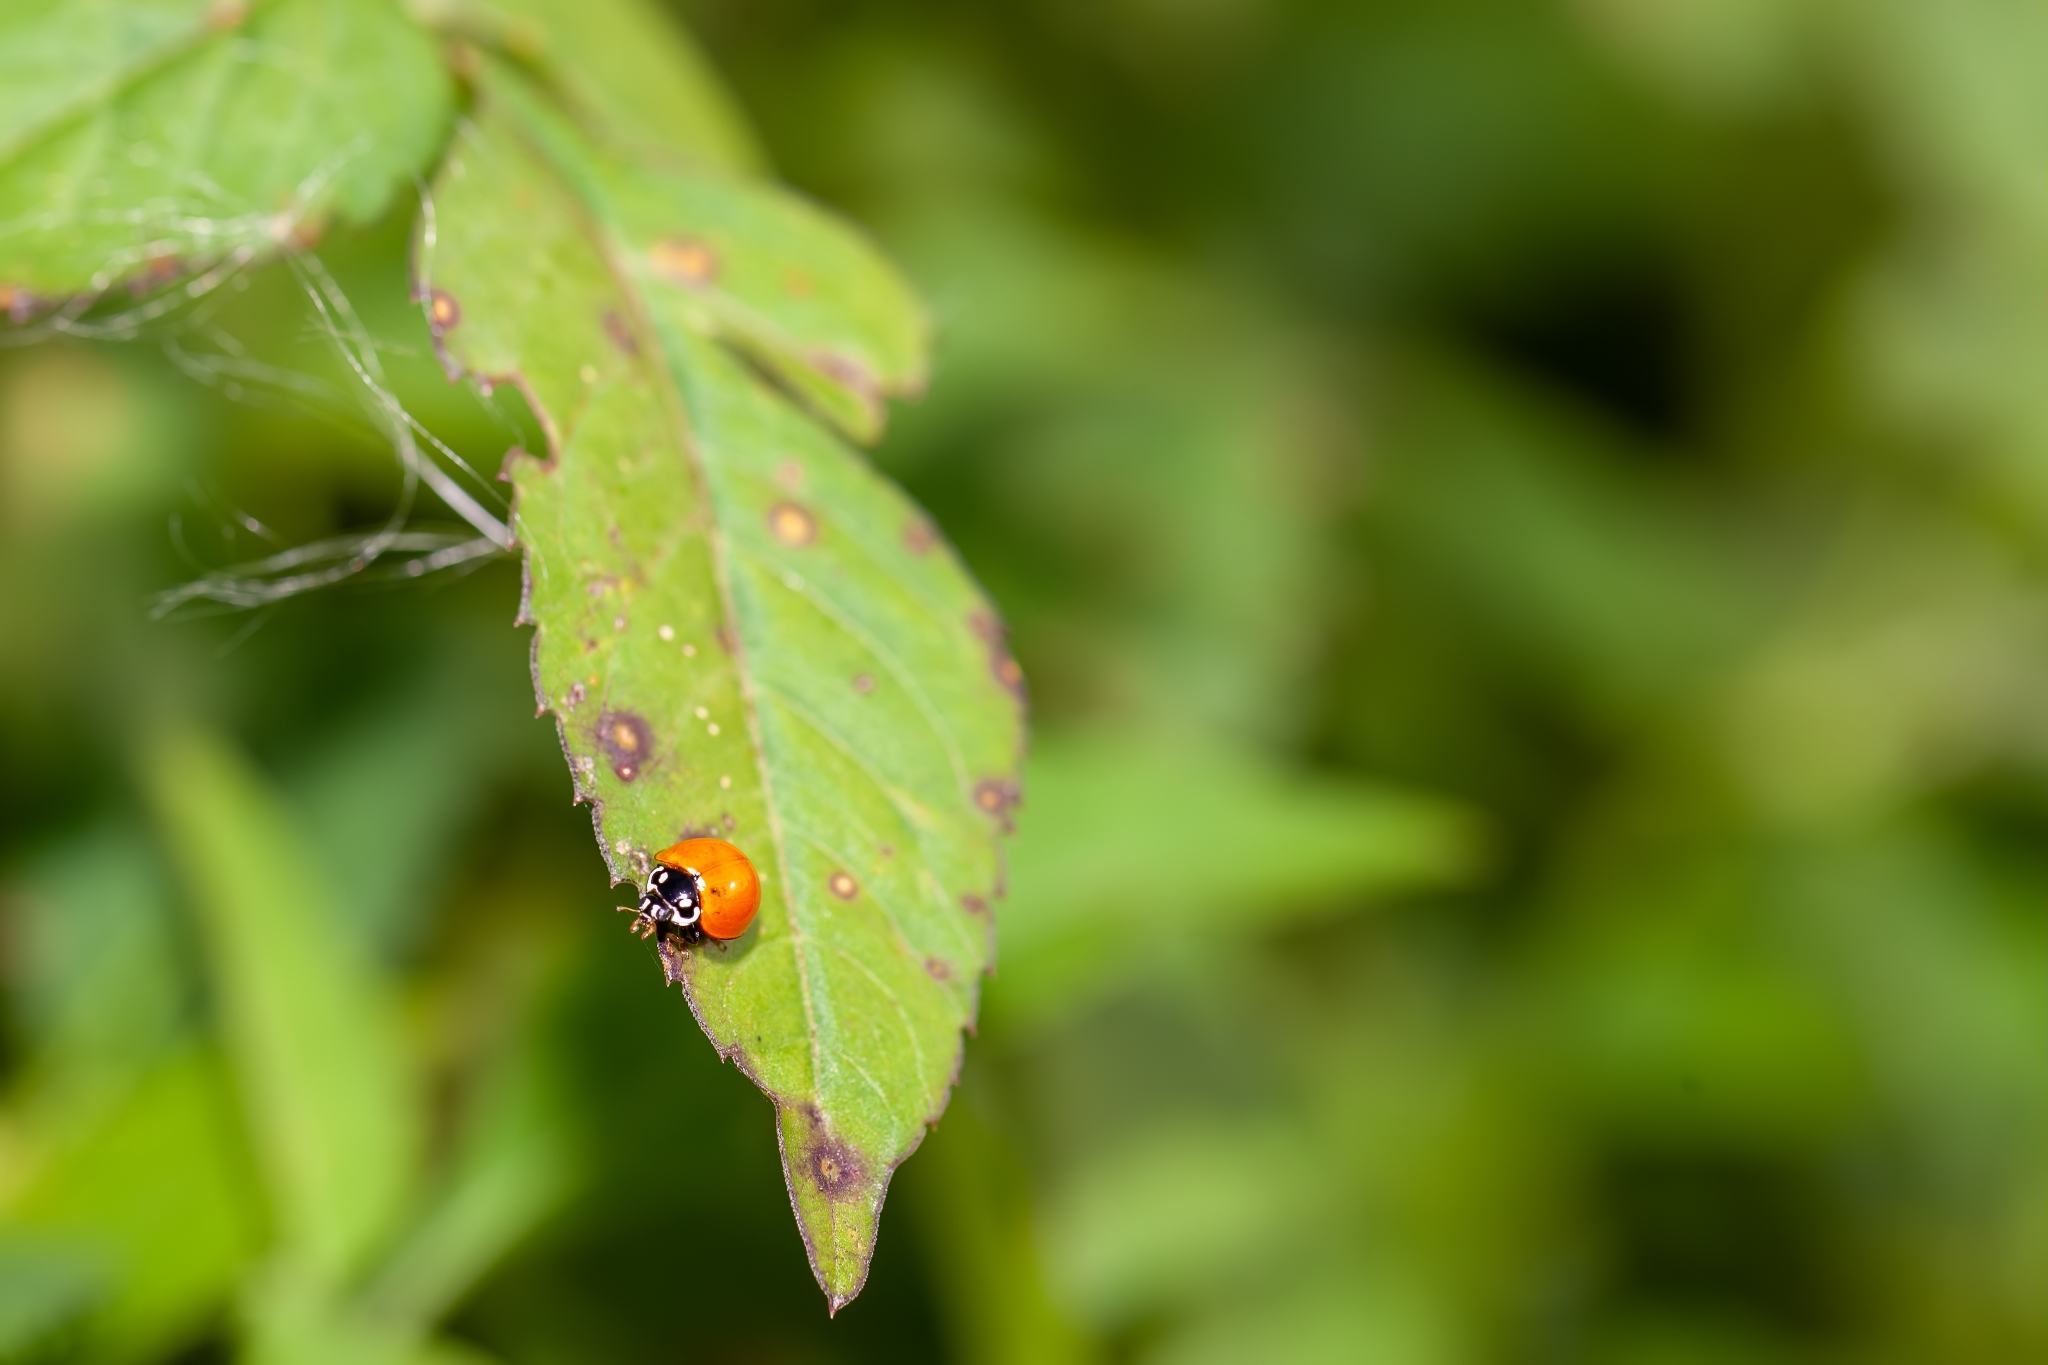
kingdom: Animalia
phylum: Arthropoda
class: Insecta
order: Coleoptera
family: Coccinellidae
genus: Cycloneda
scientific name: Cycloneda sanguinea
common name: Ladybird beetle
